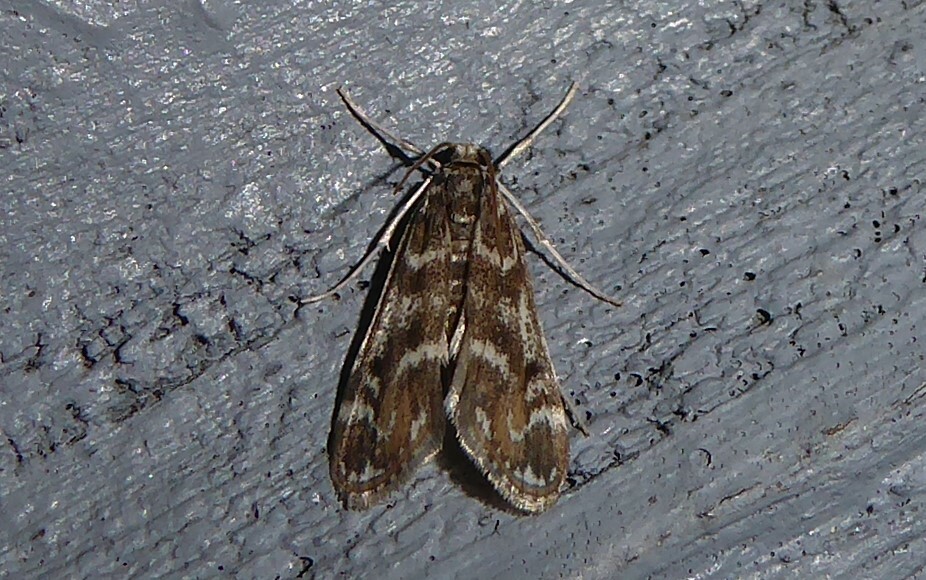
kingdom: Animalia
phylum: Arthropoda
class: Insecta
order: Lepidoptera
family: Crambidae
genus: Hygraula
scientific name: Hygraula nitens
